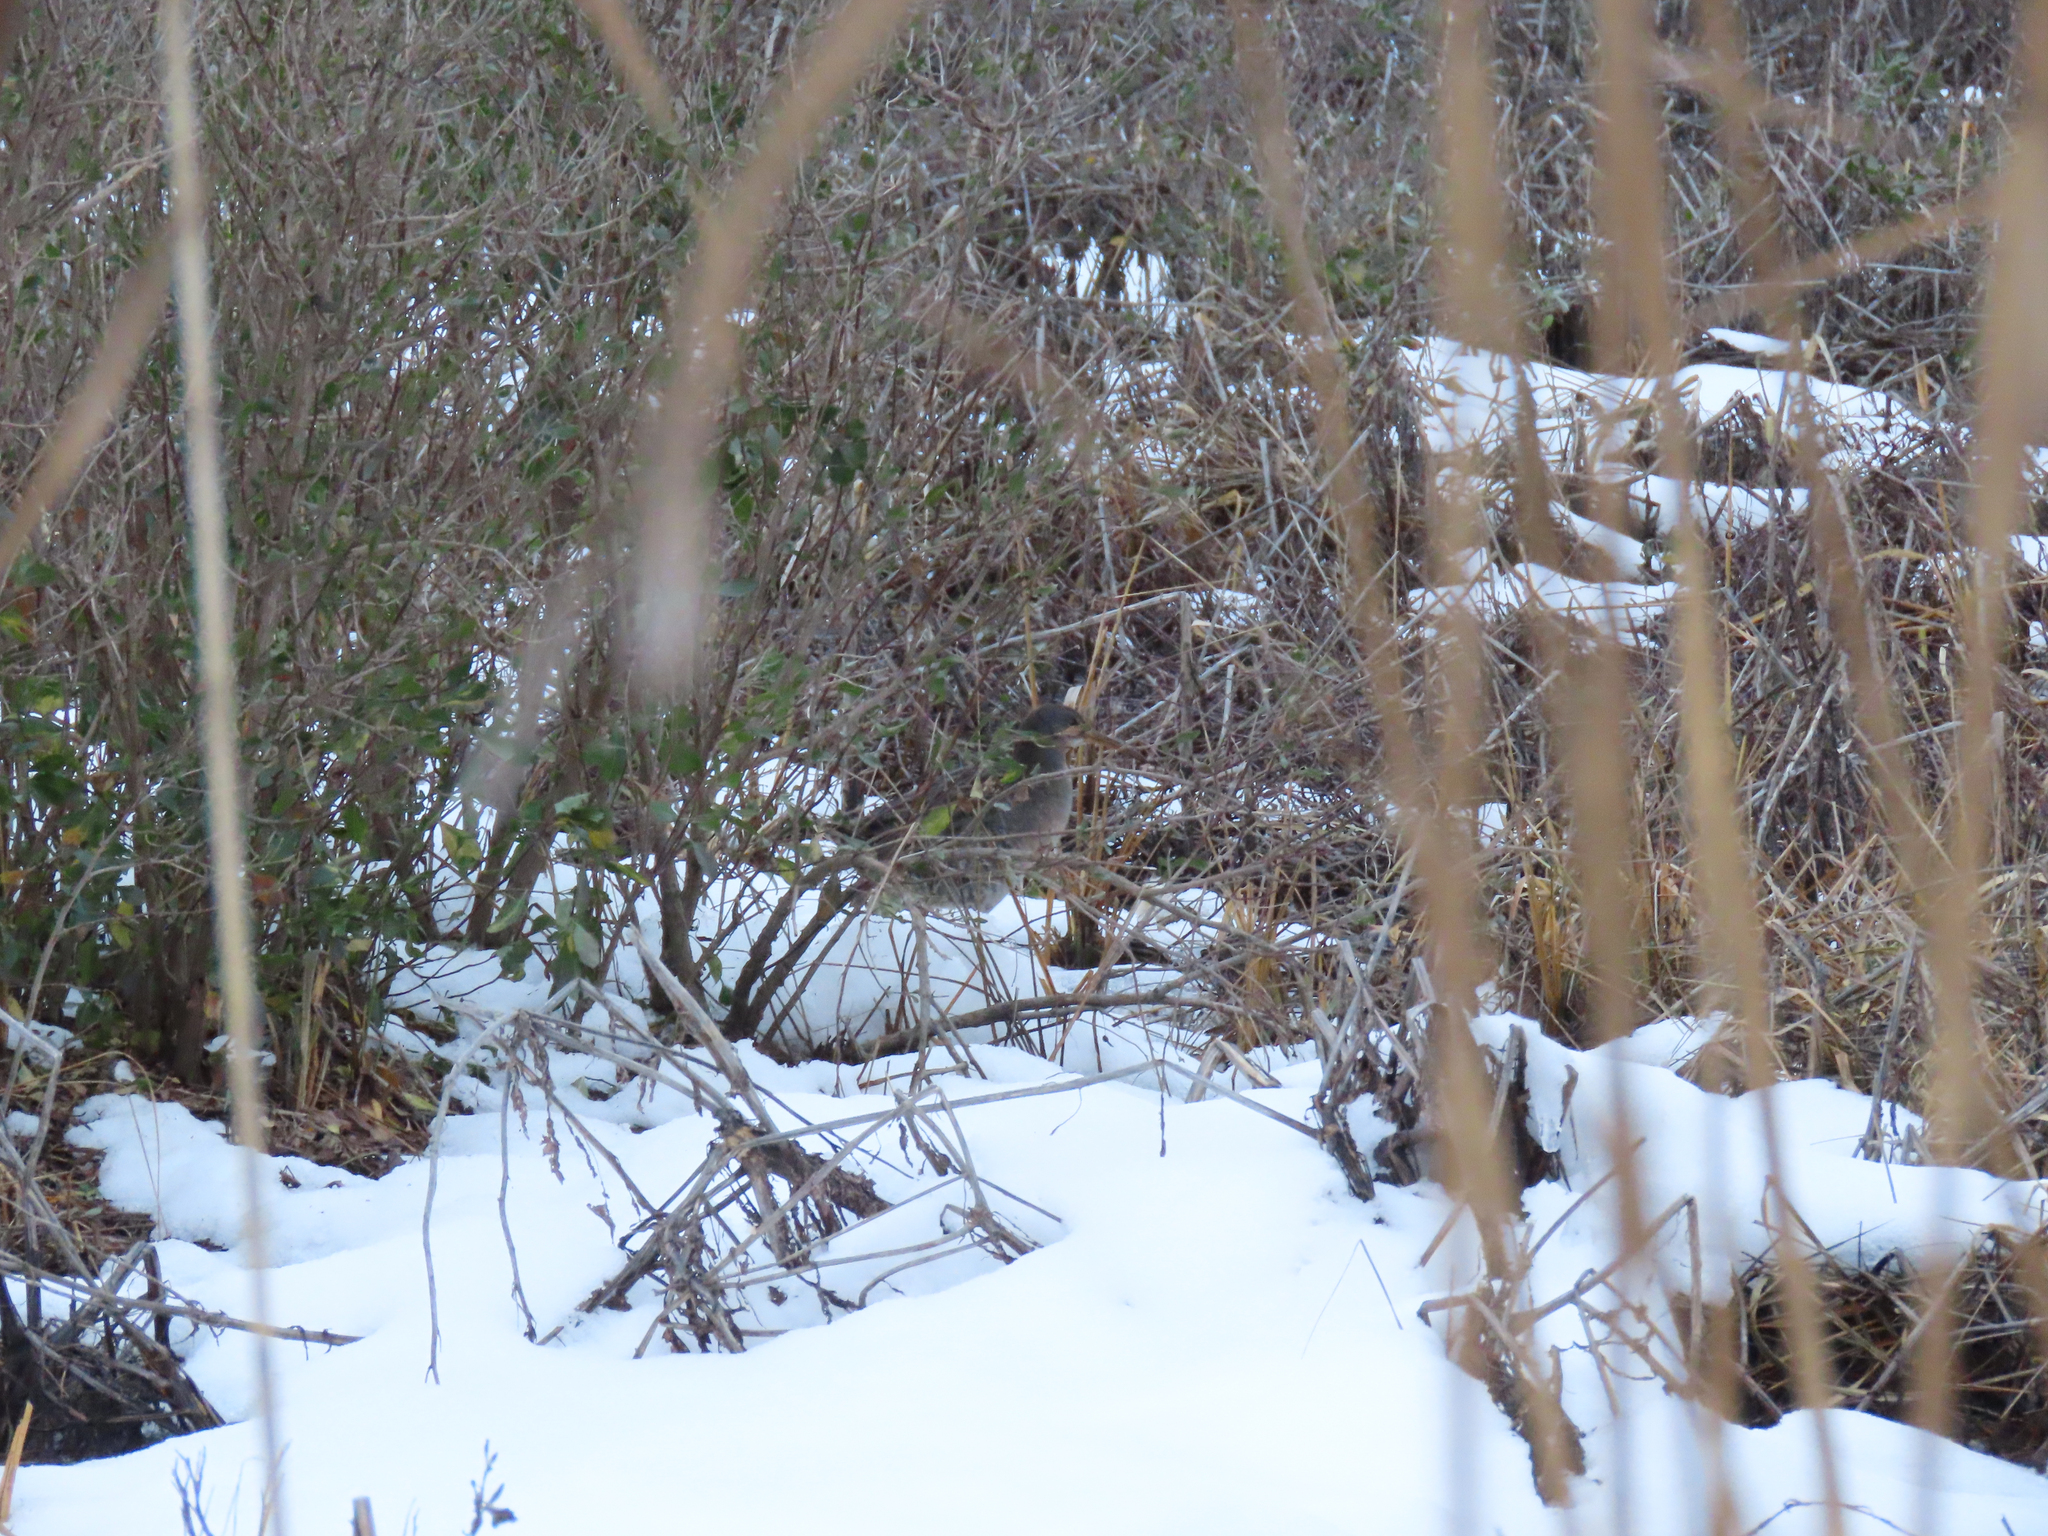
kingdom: Animalia
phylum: Chordata
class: Aves
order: Gruiformes
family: Rallidae
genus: Rallus
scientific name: Rallus crepitans
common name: Clapper rail
